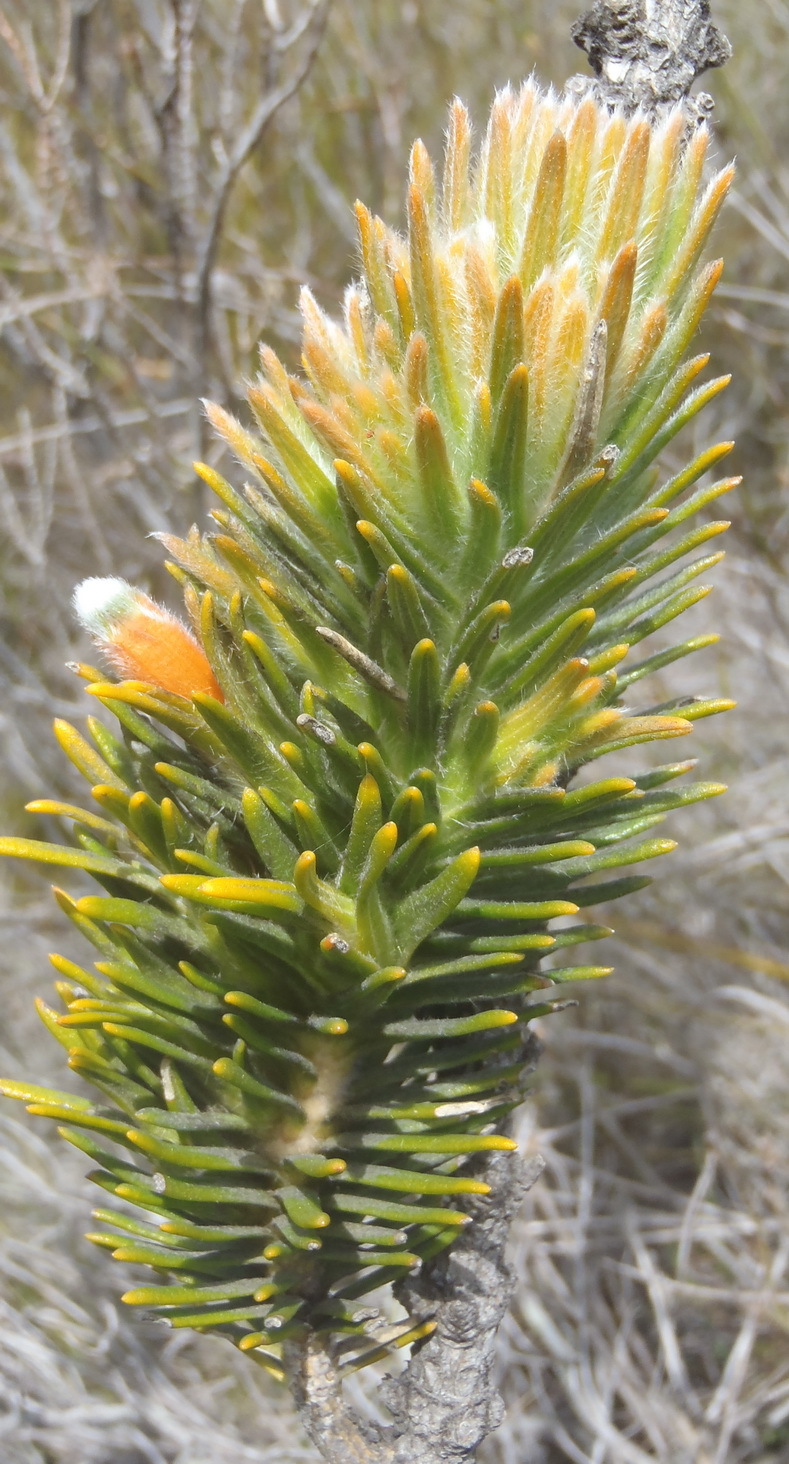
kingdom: Plantae
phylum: Tracheophyta
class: Magnoliopsida
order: Lamiales
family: Stilbaceae
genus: Retzia
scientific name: Retzia capensis
